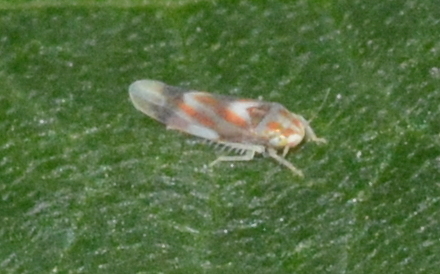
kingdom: Animalia
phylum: Arthropoda
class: Insecta
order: Hemiptera
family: Cicadellidae
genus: Erythridula
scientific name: Erythridula fumida
